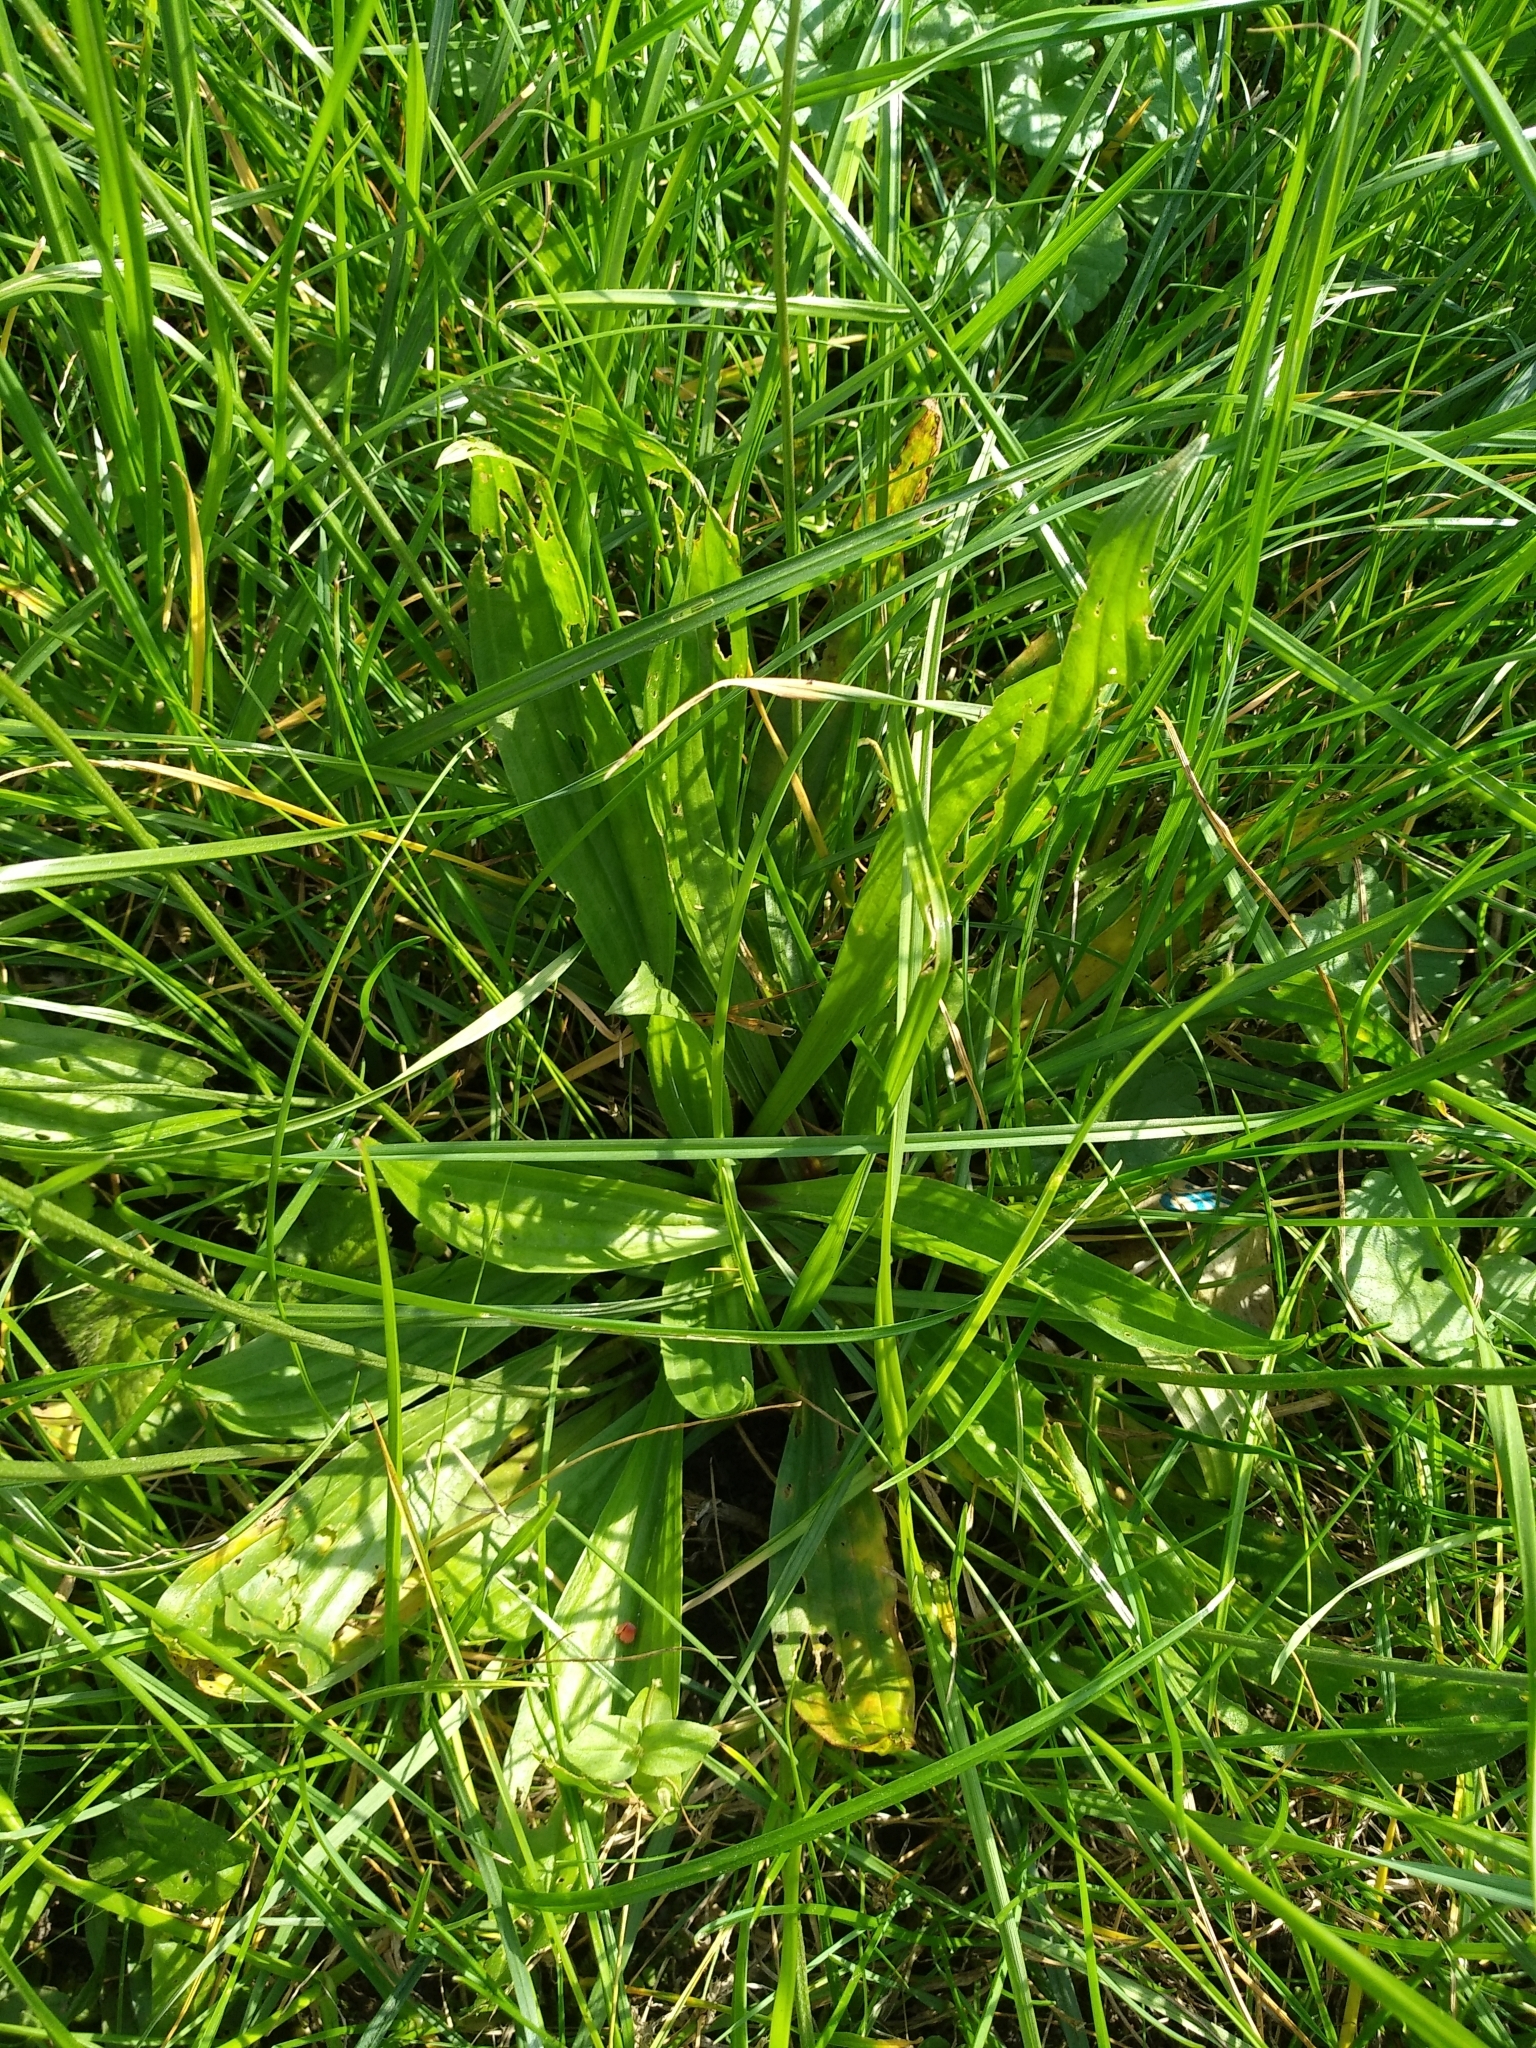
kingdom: Plantae
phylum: Tracheophyta
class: Magnoliopsida
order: Lamiales
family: Plantaginaceae
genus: Plantago
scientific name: Plantago lanceolata
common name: Ribwort plantain
